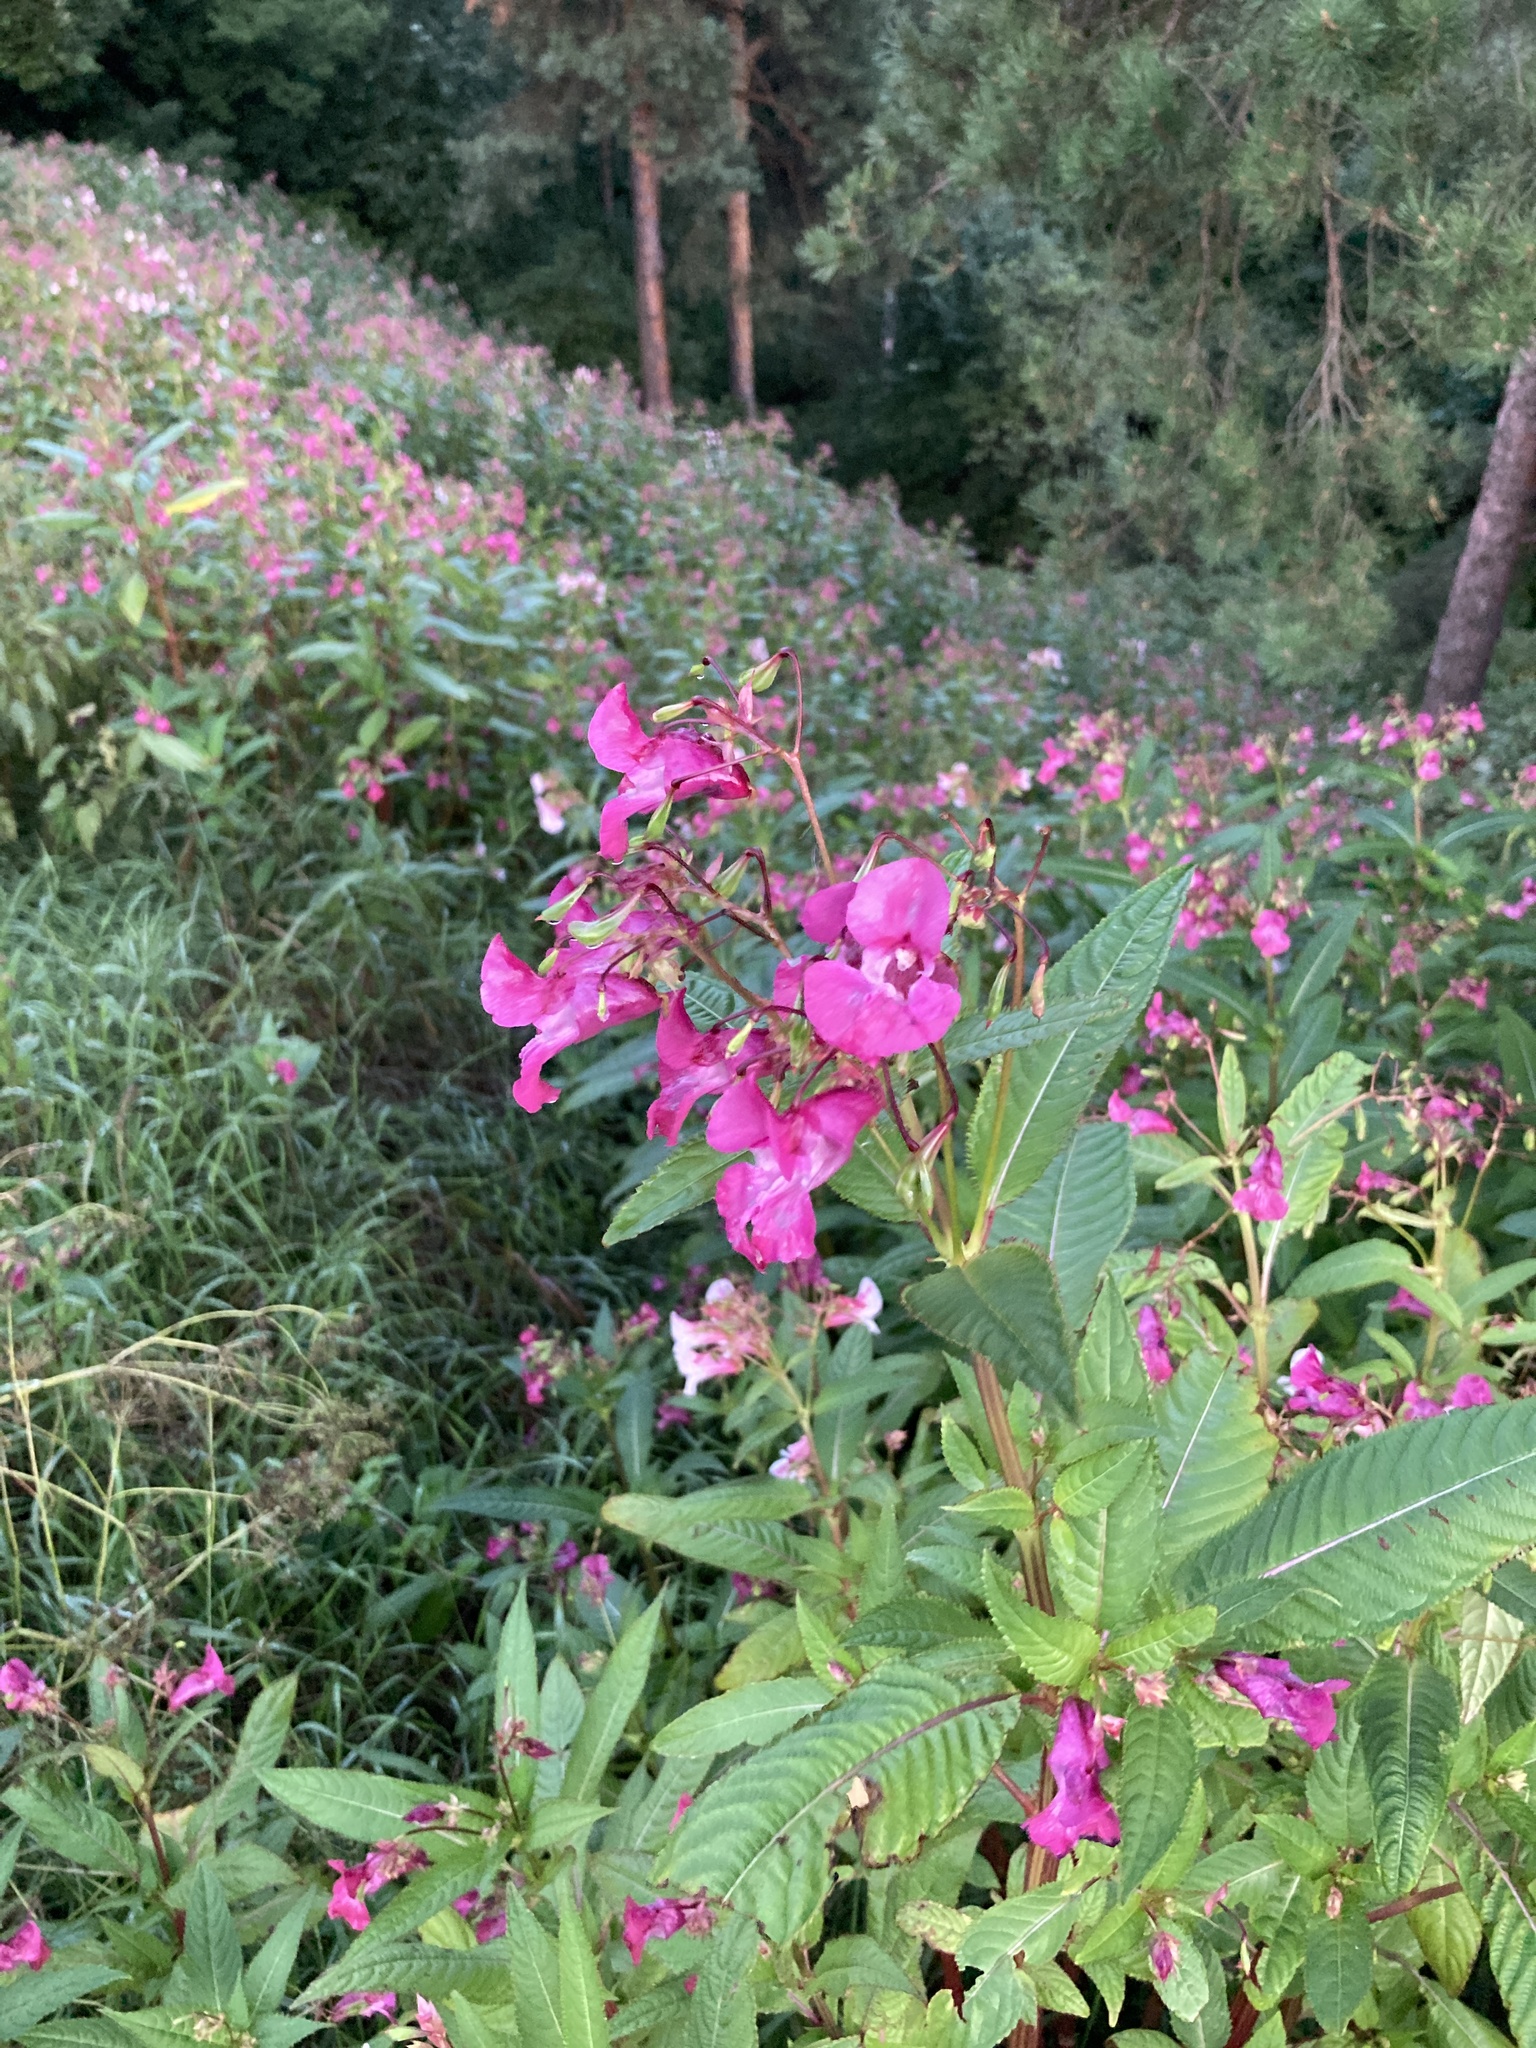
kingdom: Plantae
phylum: Tracheophyta
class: Magnoliopsida
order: Ericales
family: Balsaminaceae
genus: Impatiens
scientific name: Impatiens glandulifera
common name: Himalayan balsam
